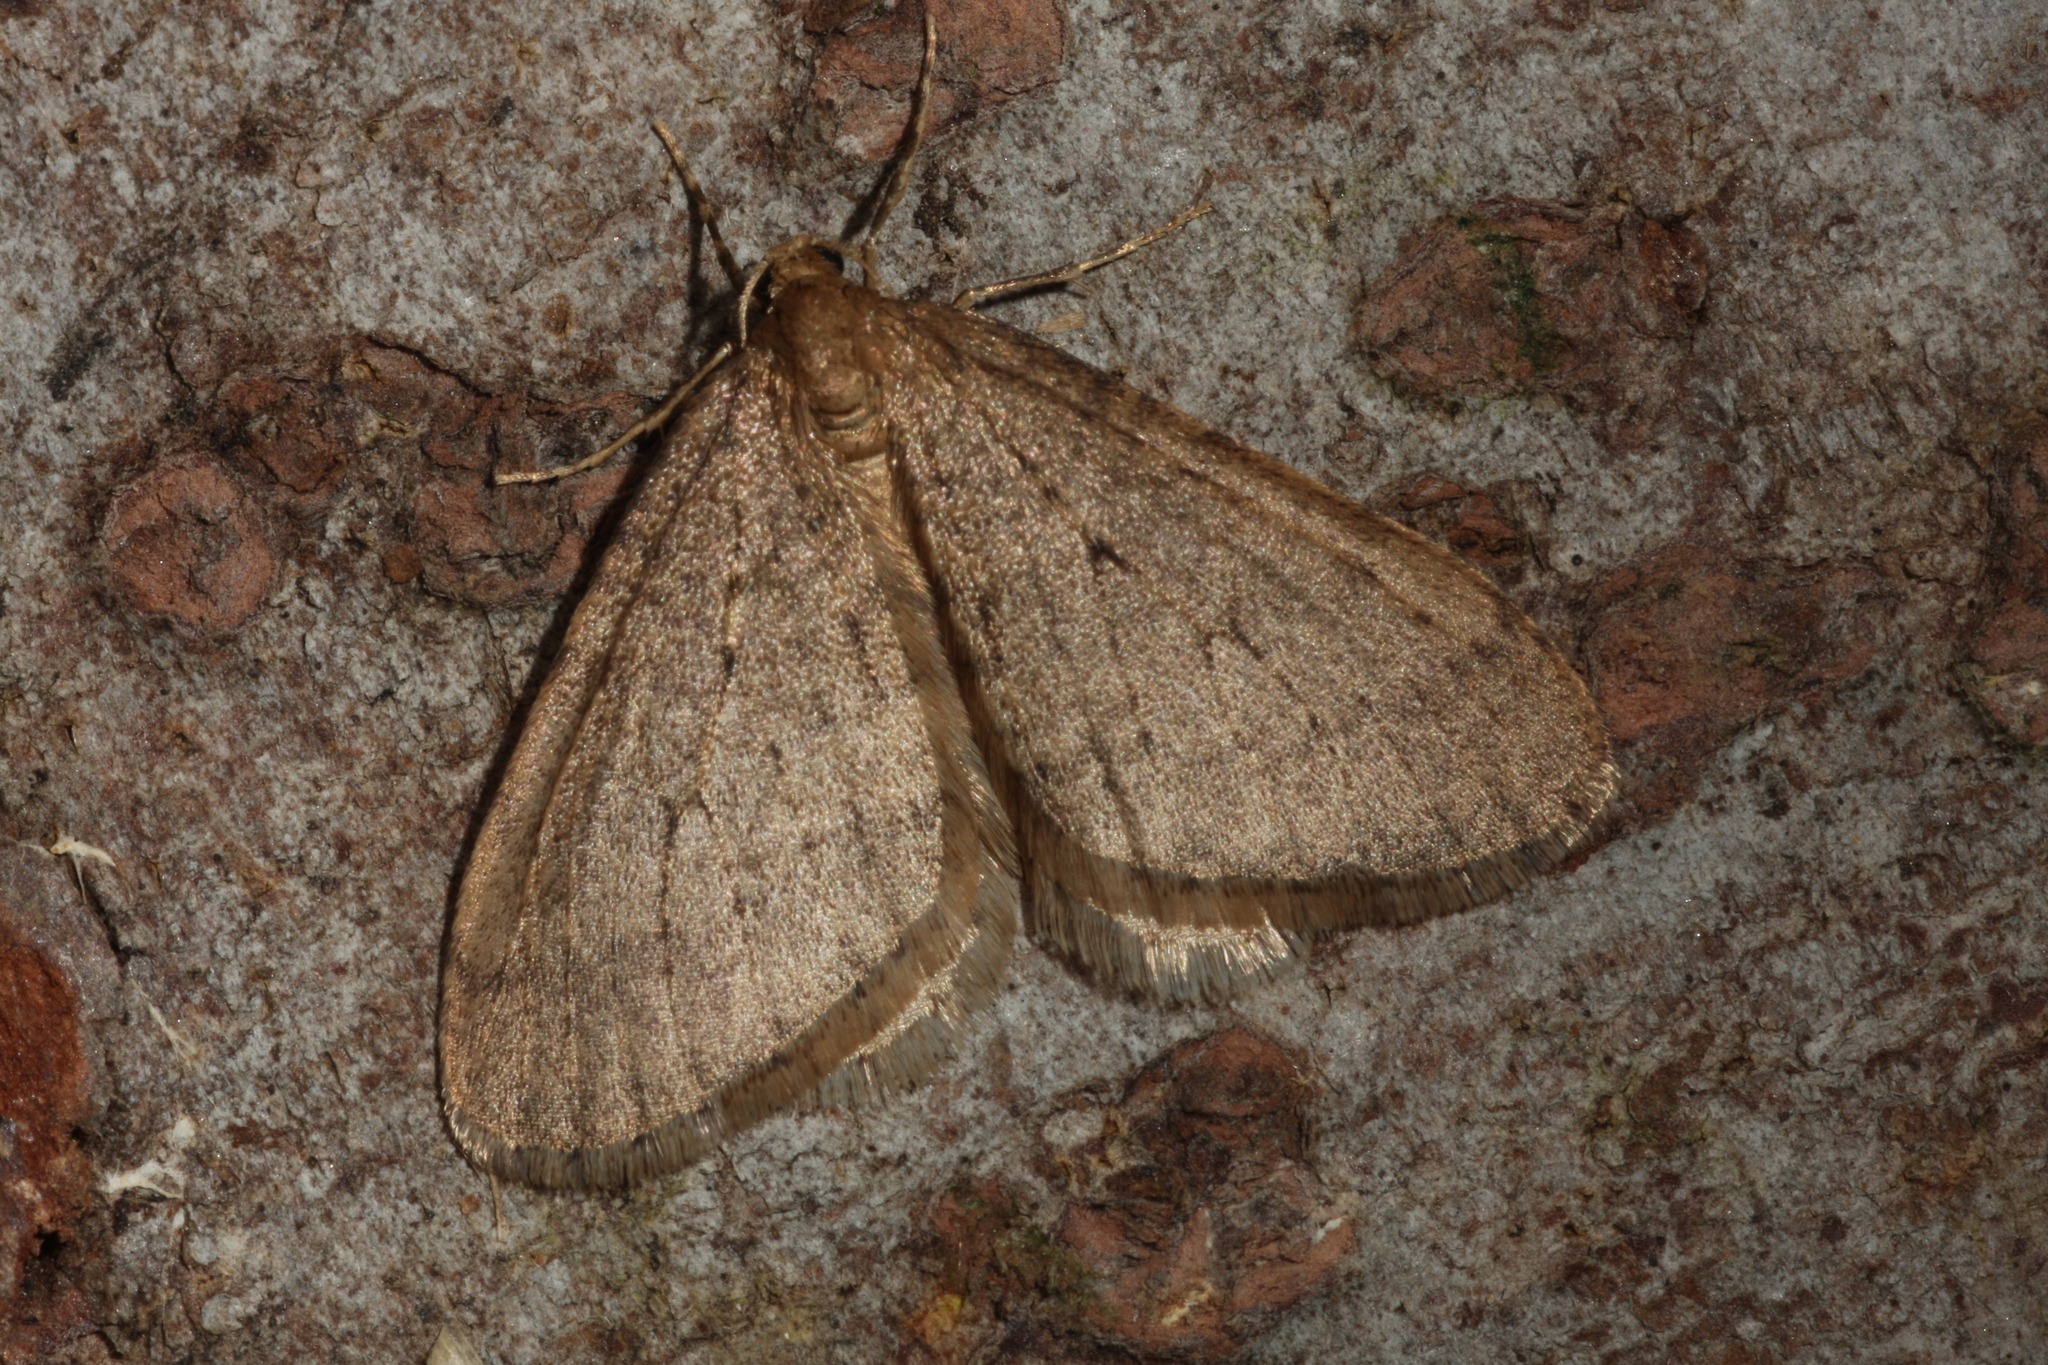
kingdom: Animalia
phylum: Arthropoda
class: Insecta
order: Lepidoptera
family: Geometridae
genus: Operophtera
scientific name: Operophtera brumata
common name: Winter moth
